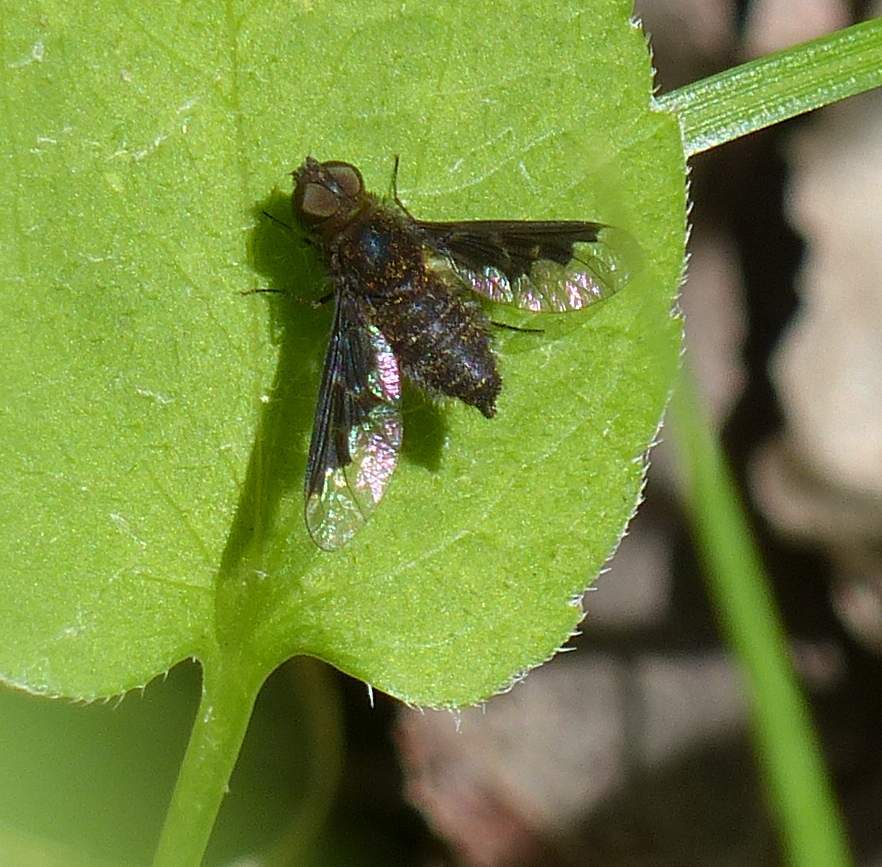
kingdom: Animalia
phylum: Arthropoda
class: Insecta
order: Diptera
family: Bombyliidae
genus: Hemipenthes
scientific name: Hemipenthes webberi
